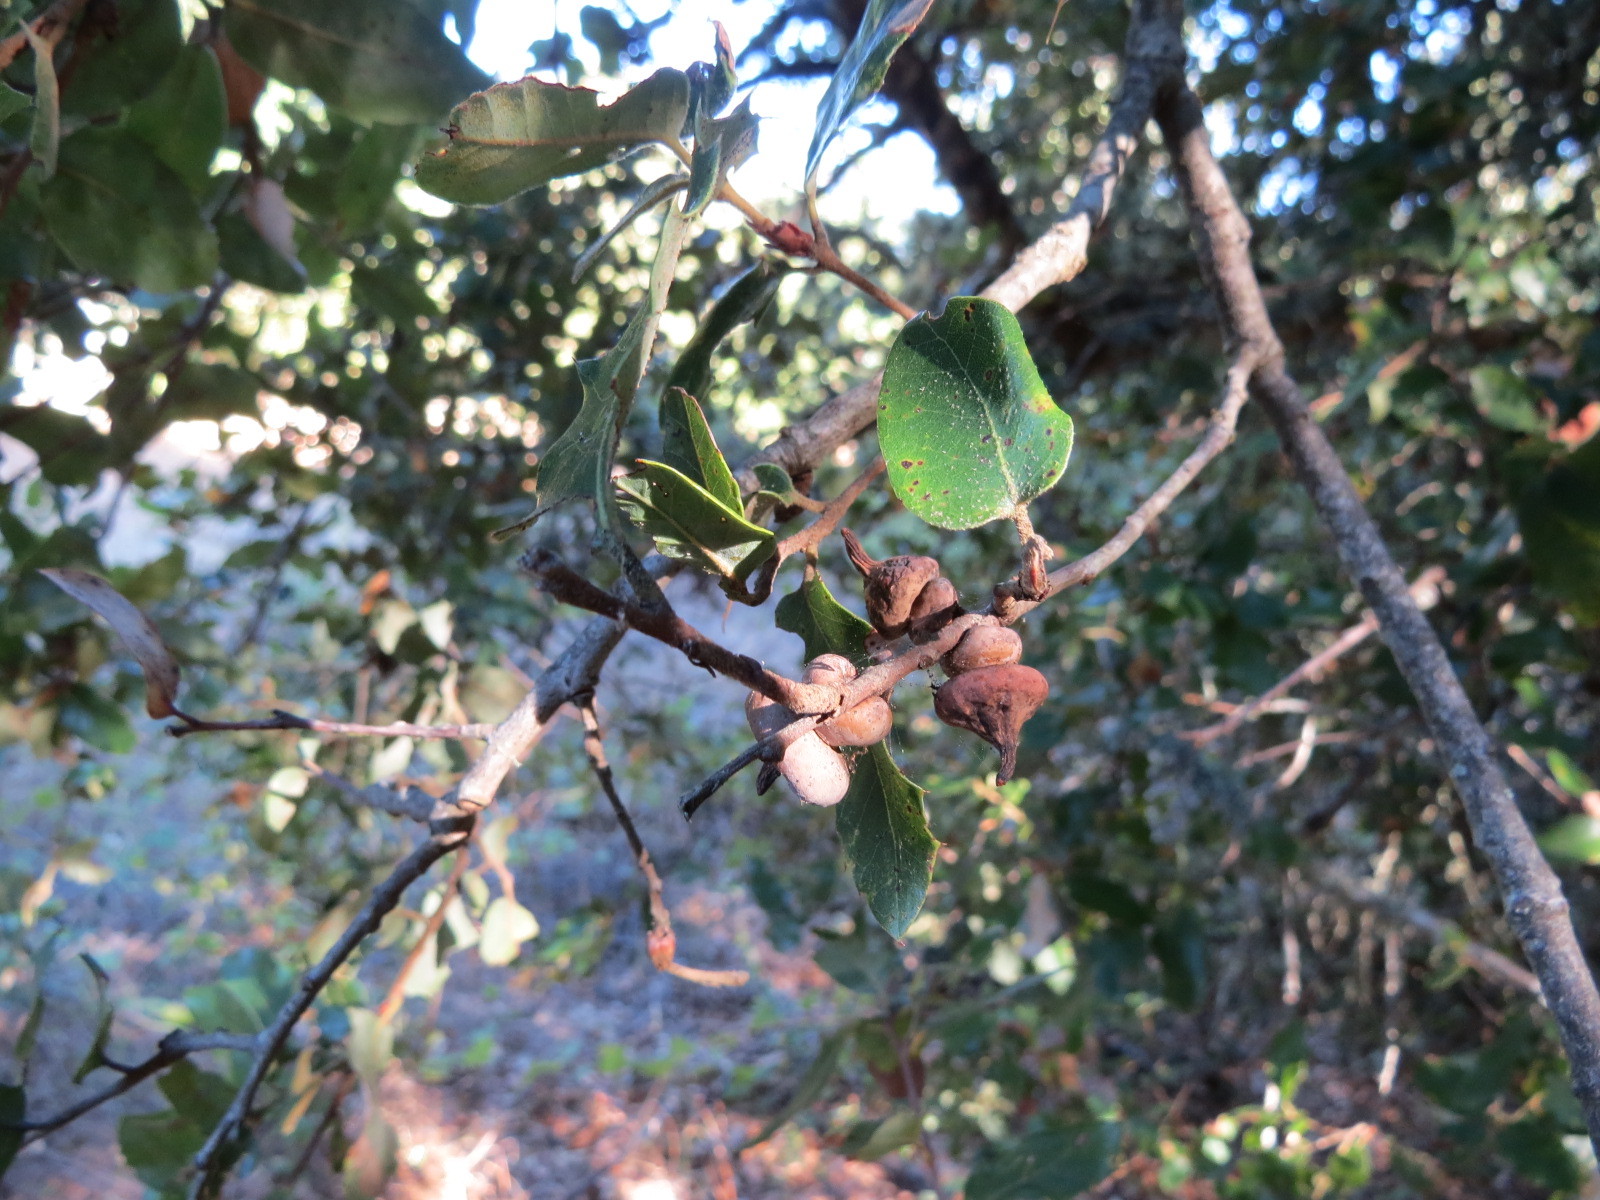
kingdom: Animalia
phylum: Arthropoda
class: Insecta
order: Hymenoptera
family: Cynipidae
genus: Heteroecus
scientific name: Heteroecus
